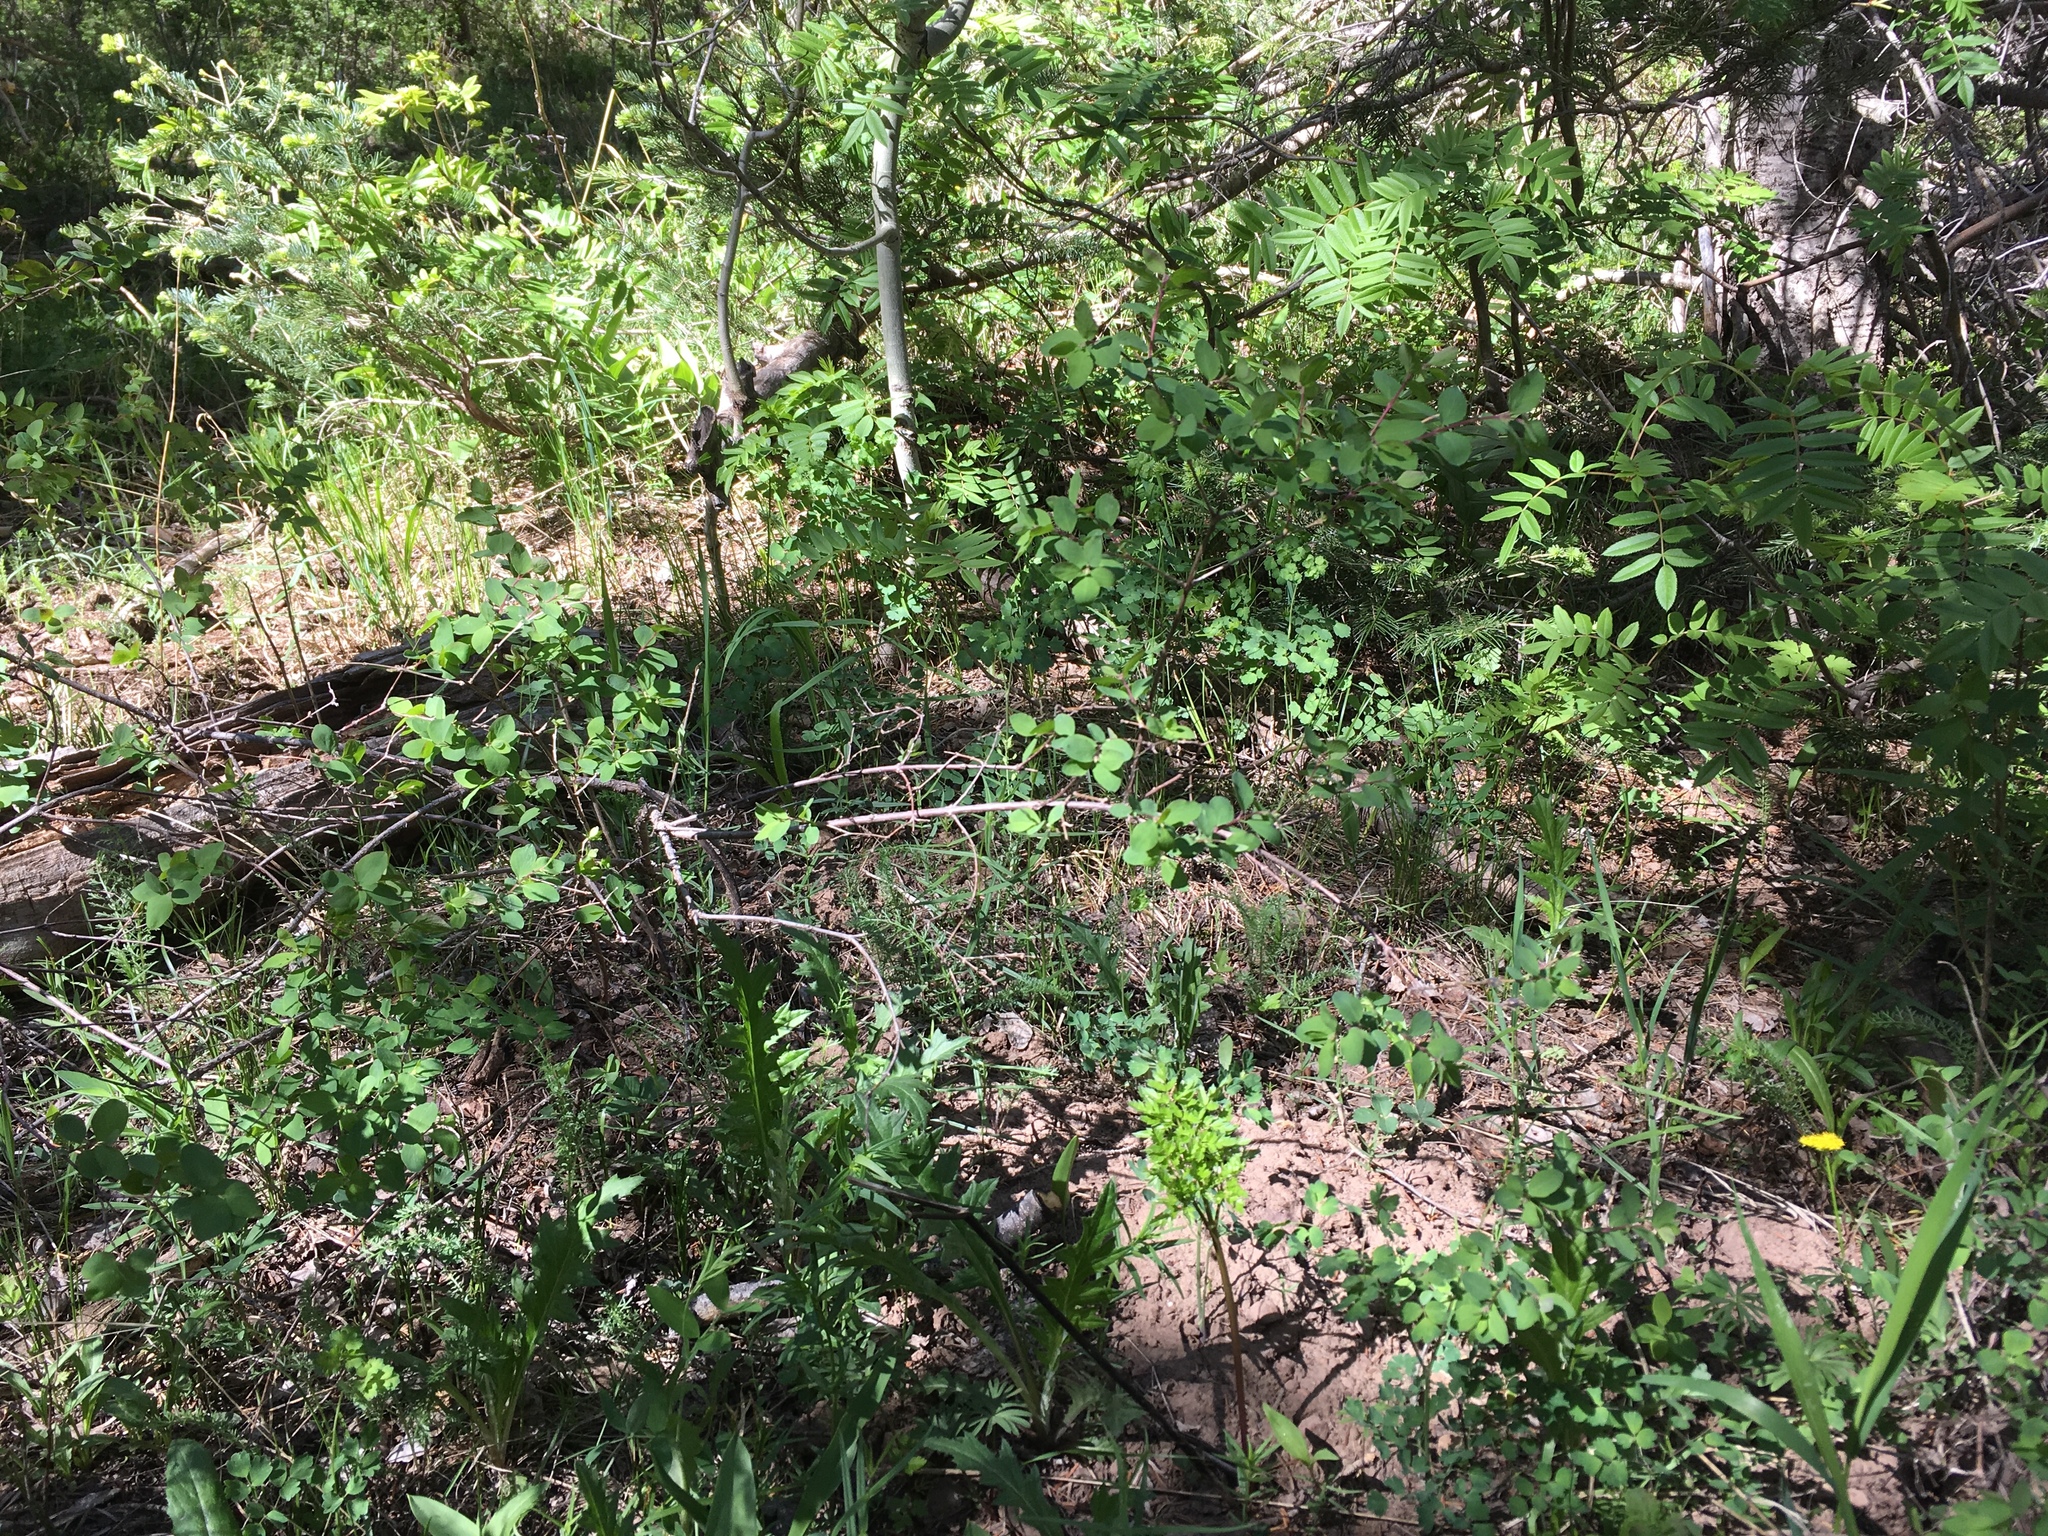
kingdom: Plantae
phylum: Tracheophyta
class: Magnoliopsida
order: Dipsacales
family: Caprifoliaceae
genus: Symphoricarpos
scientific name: Symphoricarpos rotundifolius
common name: Round-leaved snowberry
